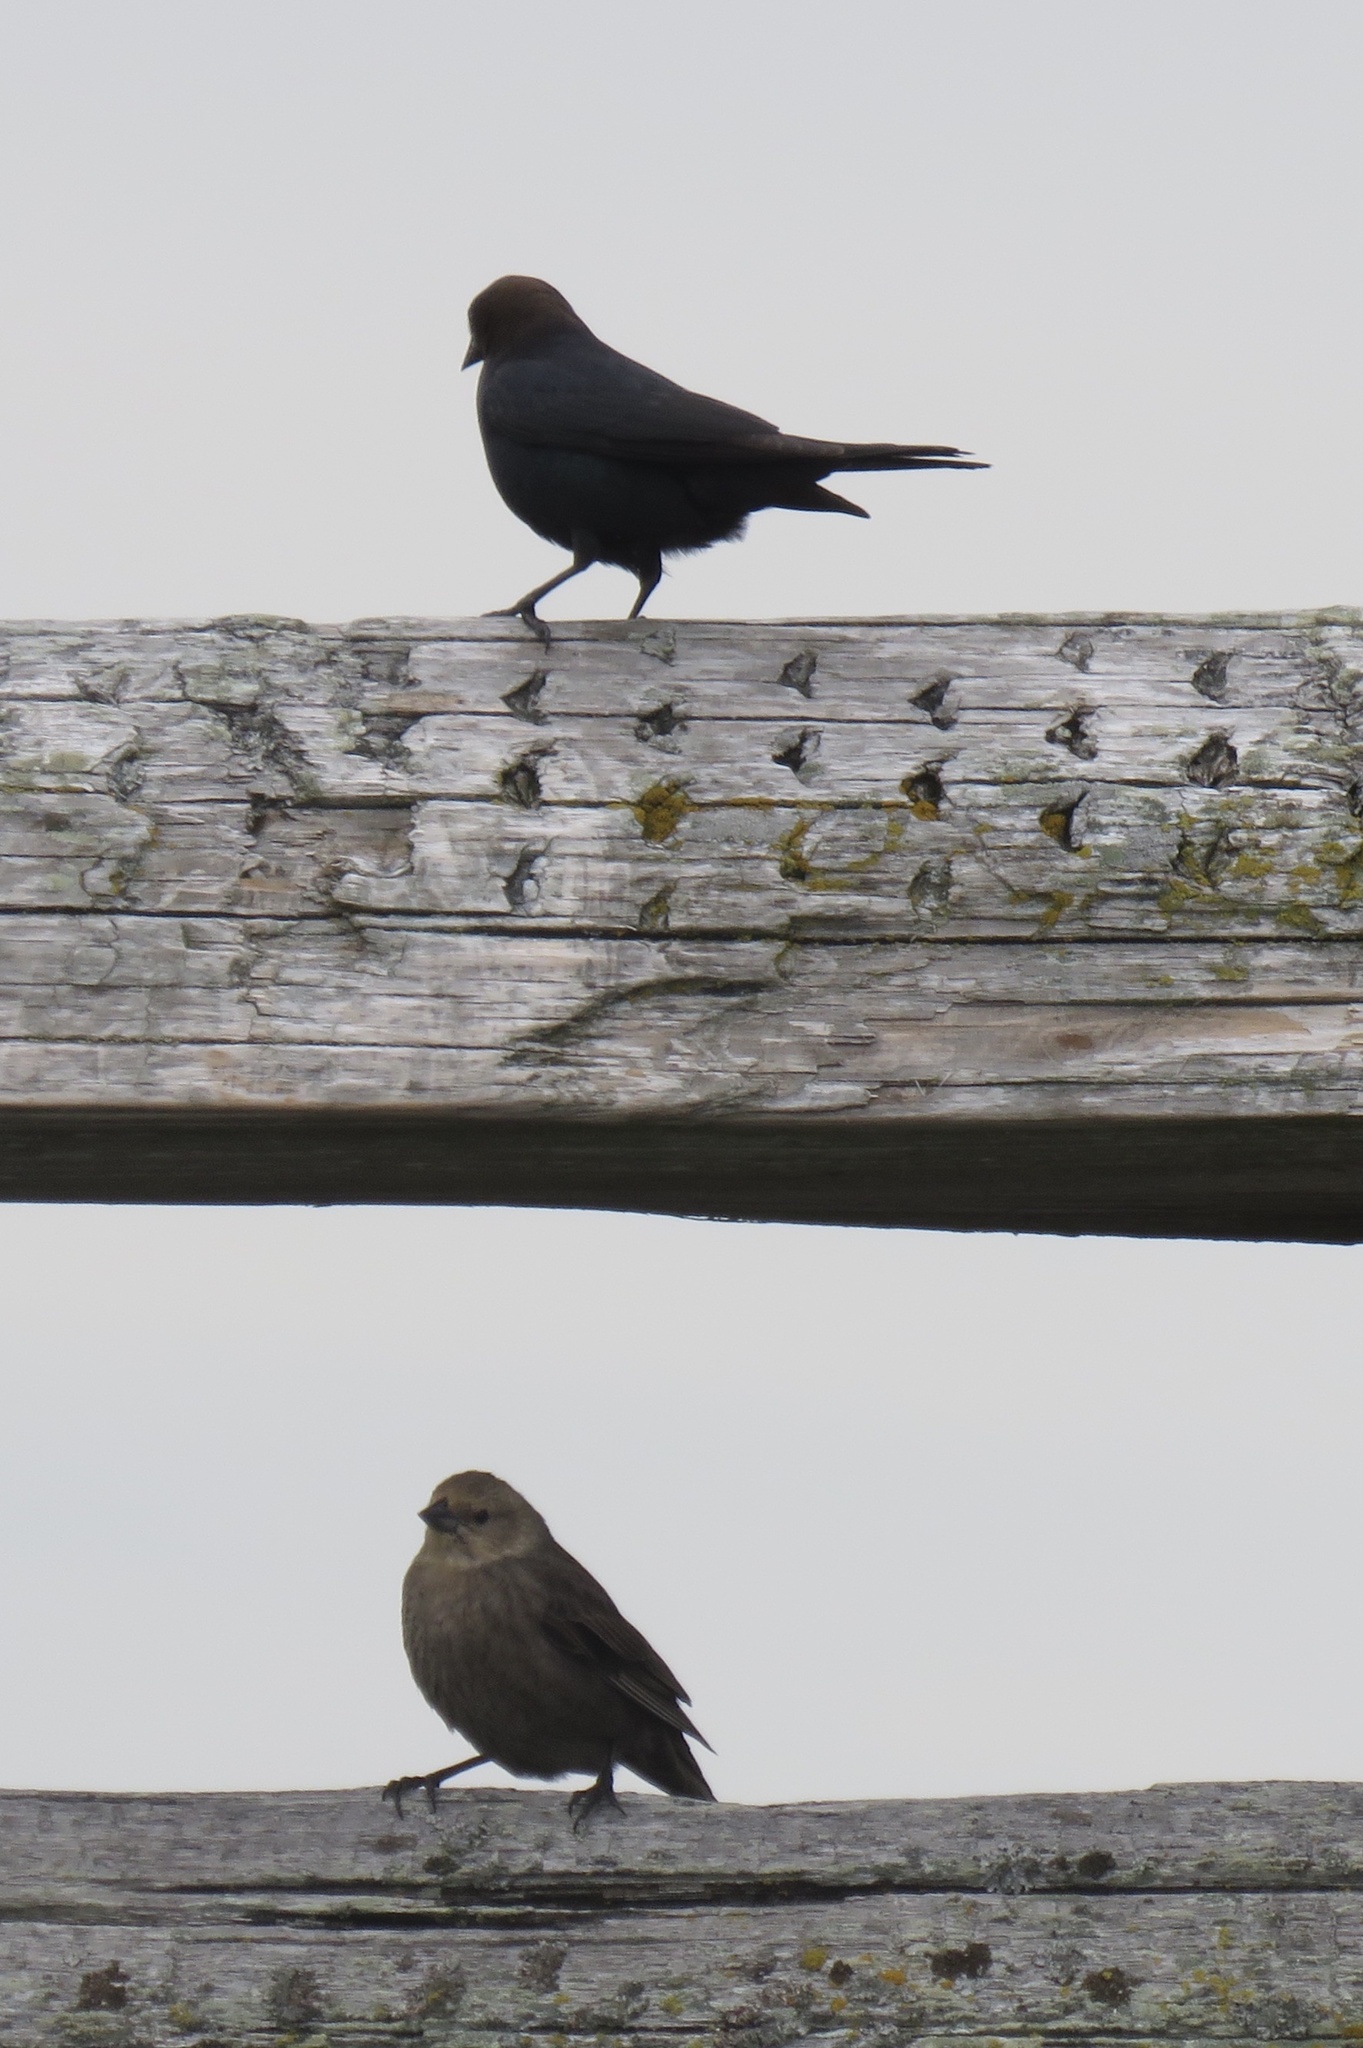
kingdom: Animalia
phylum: Chordata
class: Aves
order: Passeriformes
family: Icteridae
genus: Molothrus
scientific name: Molothrus ater
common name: Brown-headed cowbird
